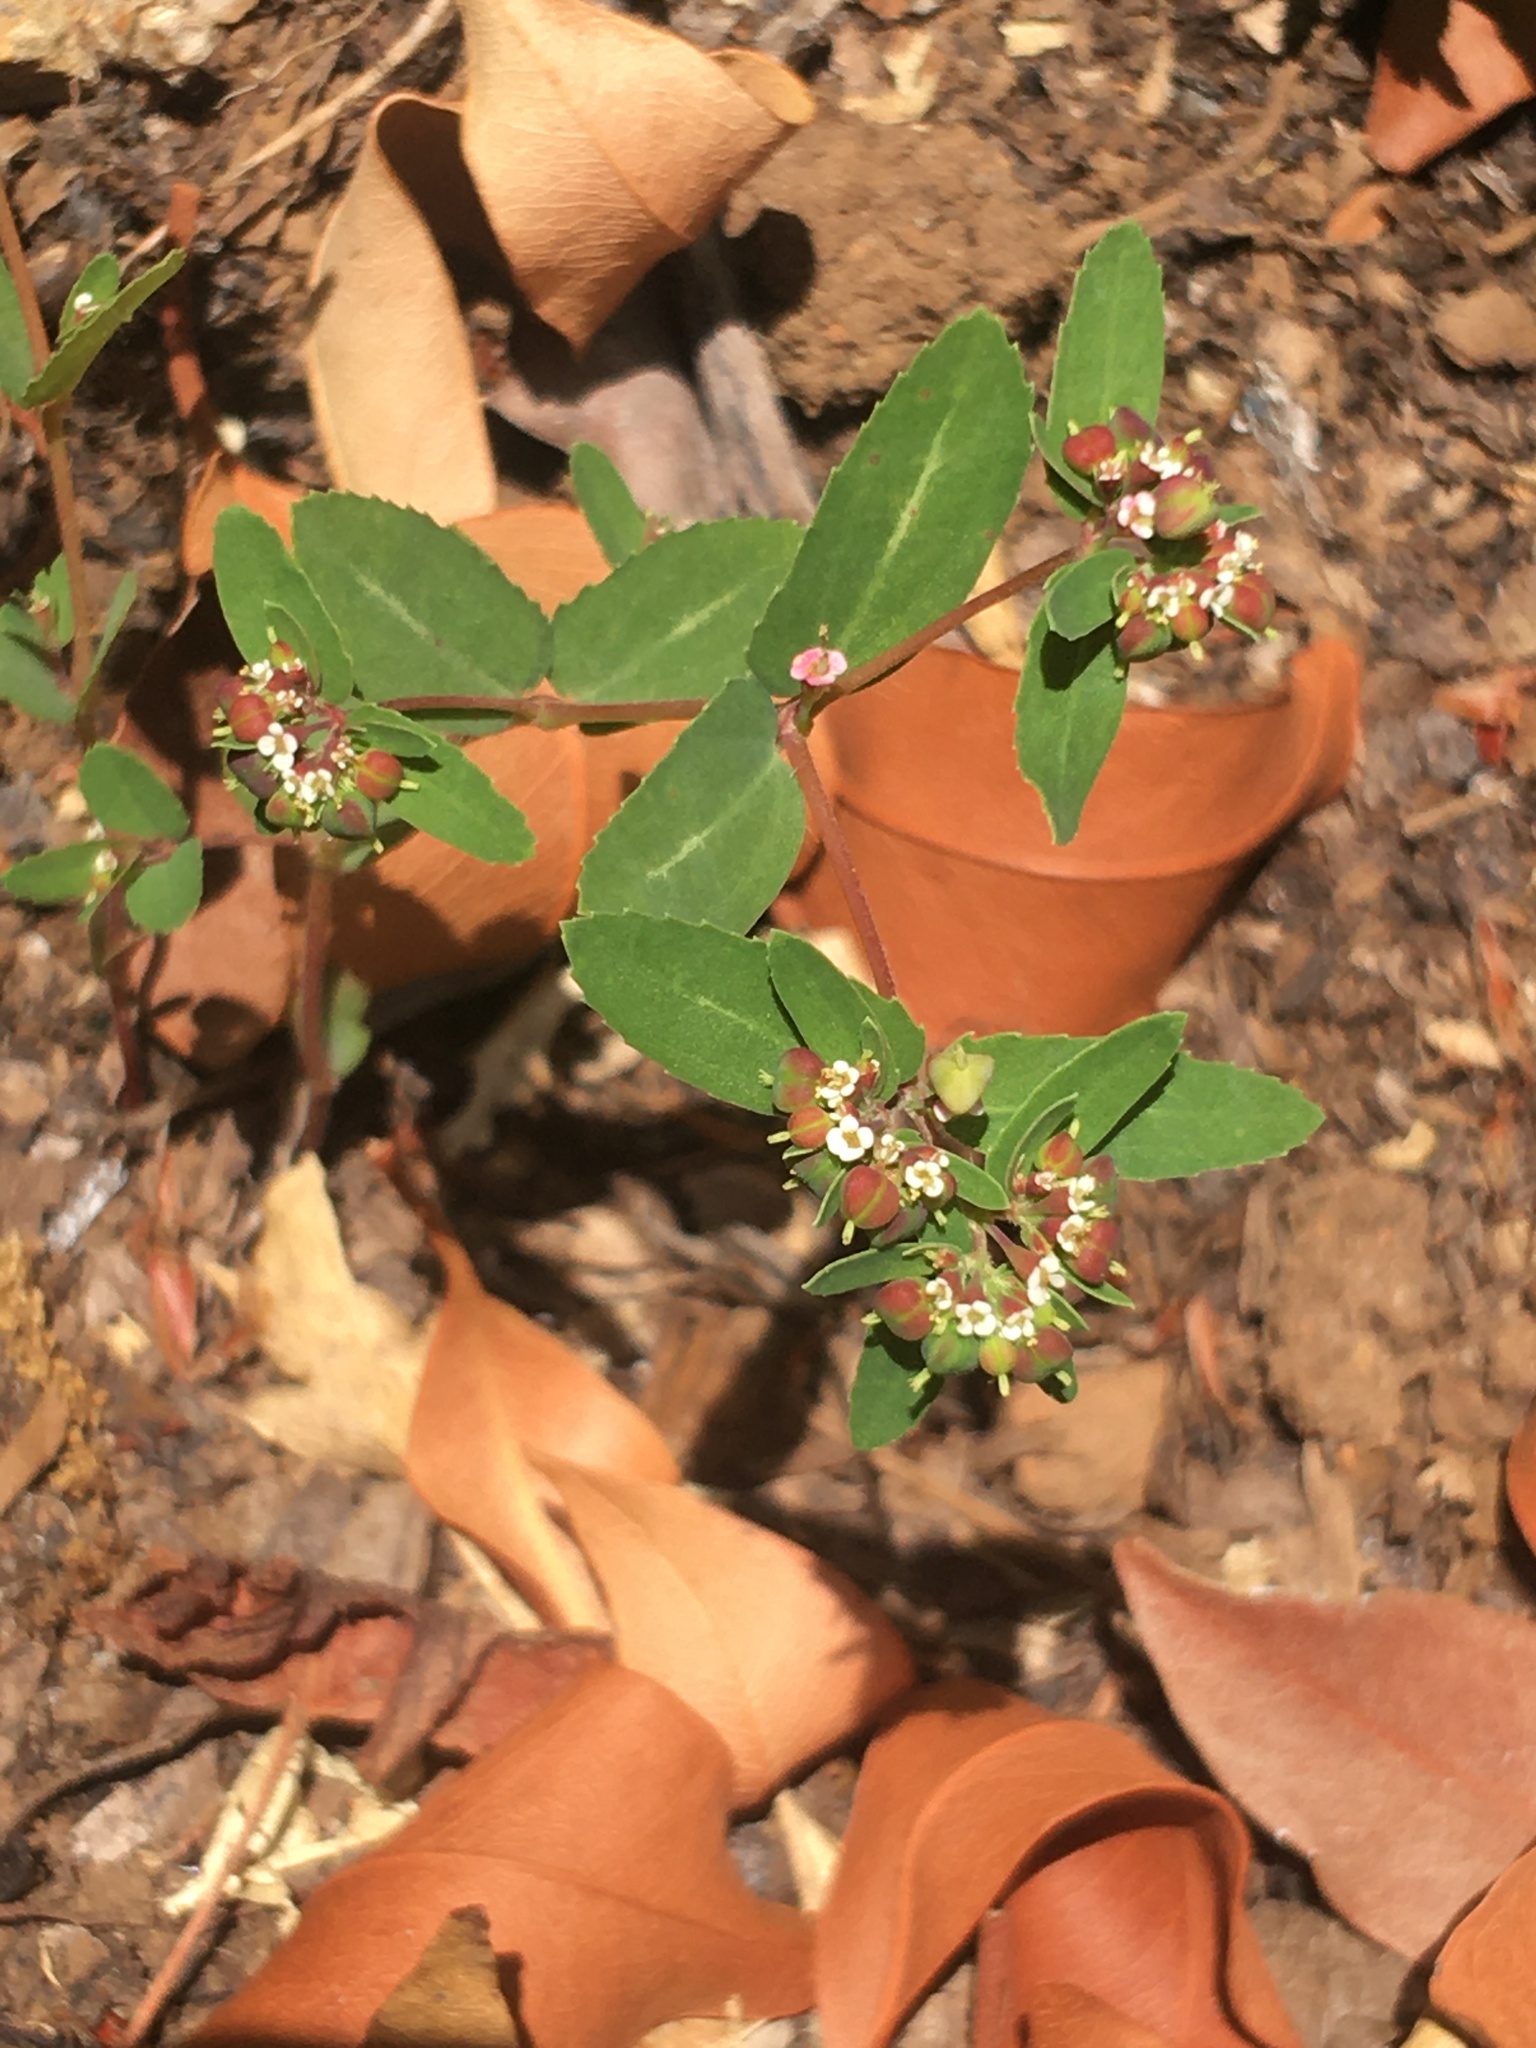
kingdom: Plantae
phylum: Tracheophyta
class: Magnoliopsida
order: Malpighiales
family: Euphorbiaceae
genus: Euphorbia
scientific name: Euphorbia nutans
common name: Eyebane
